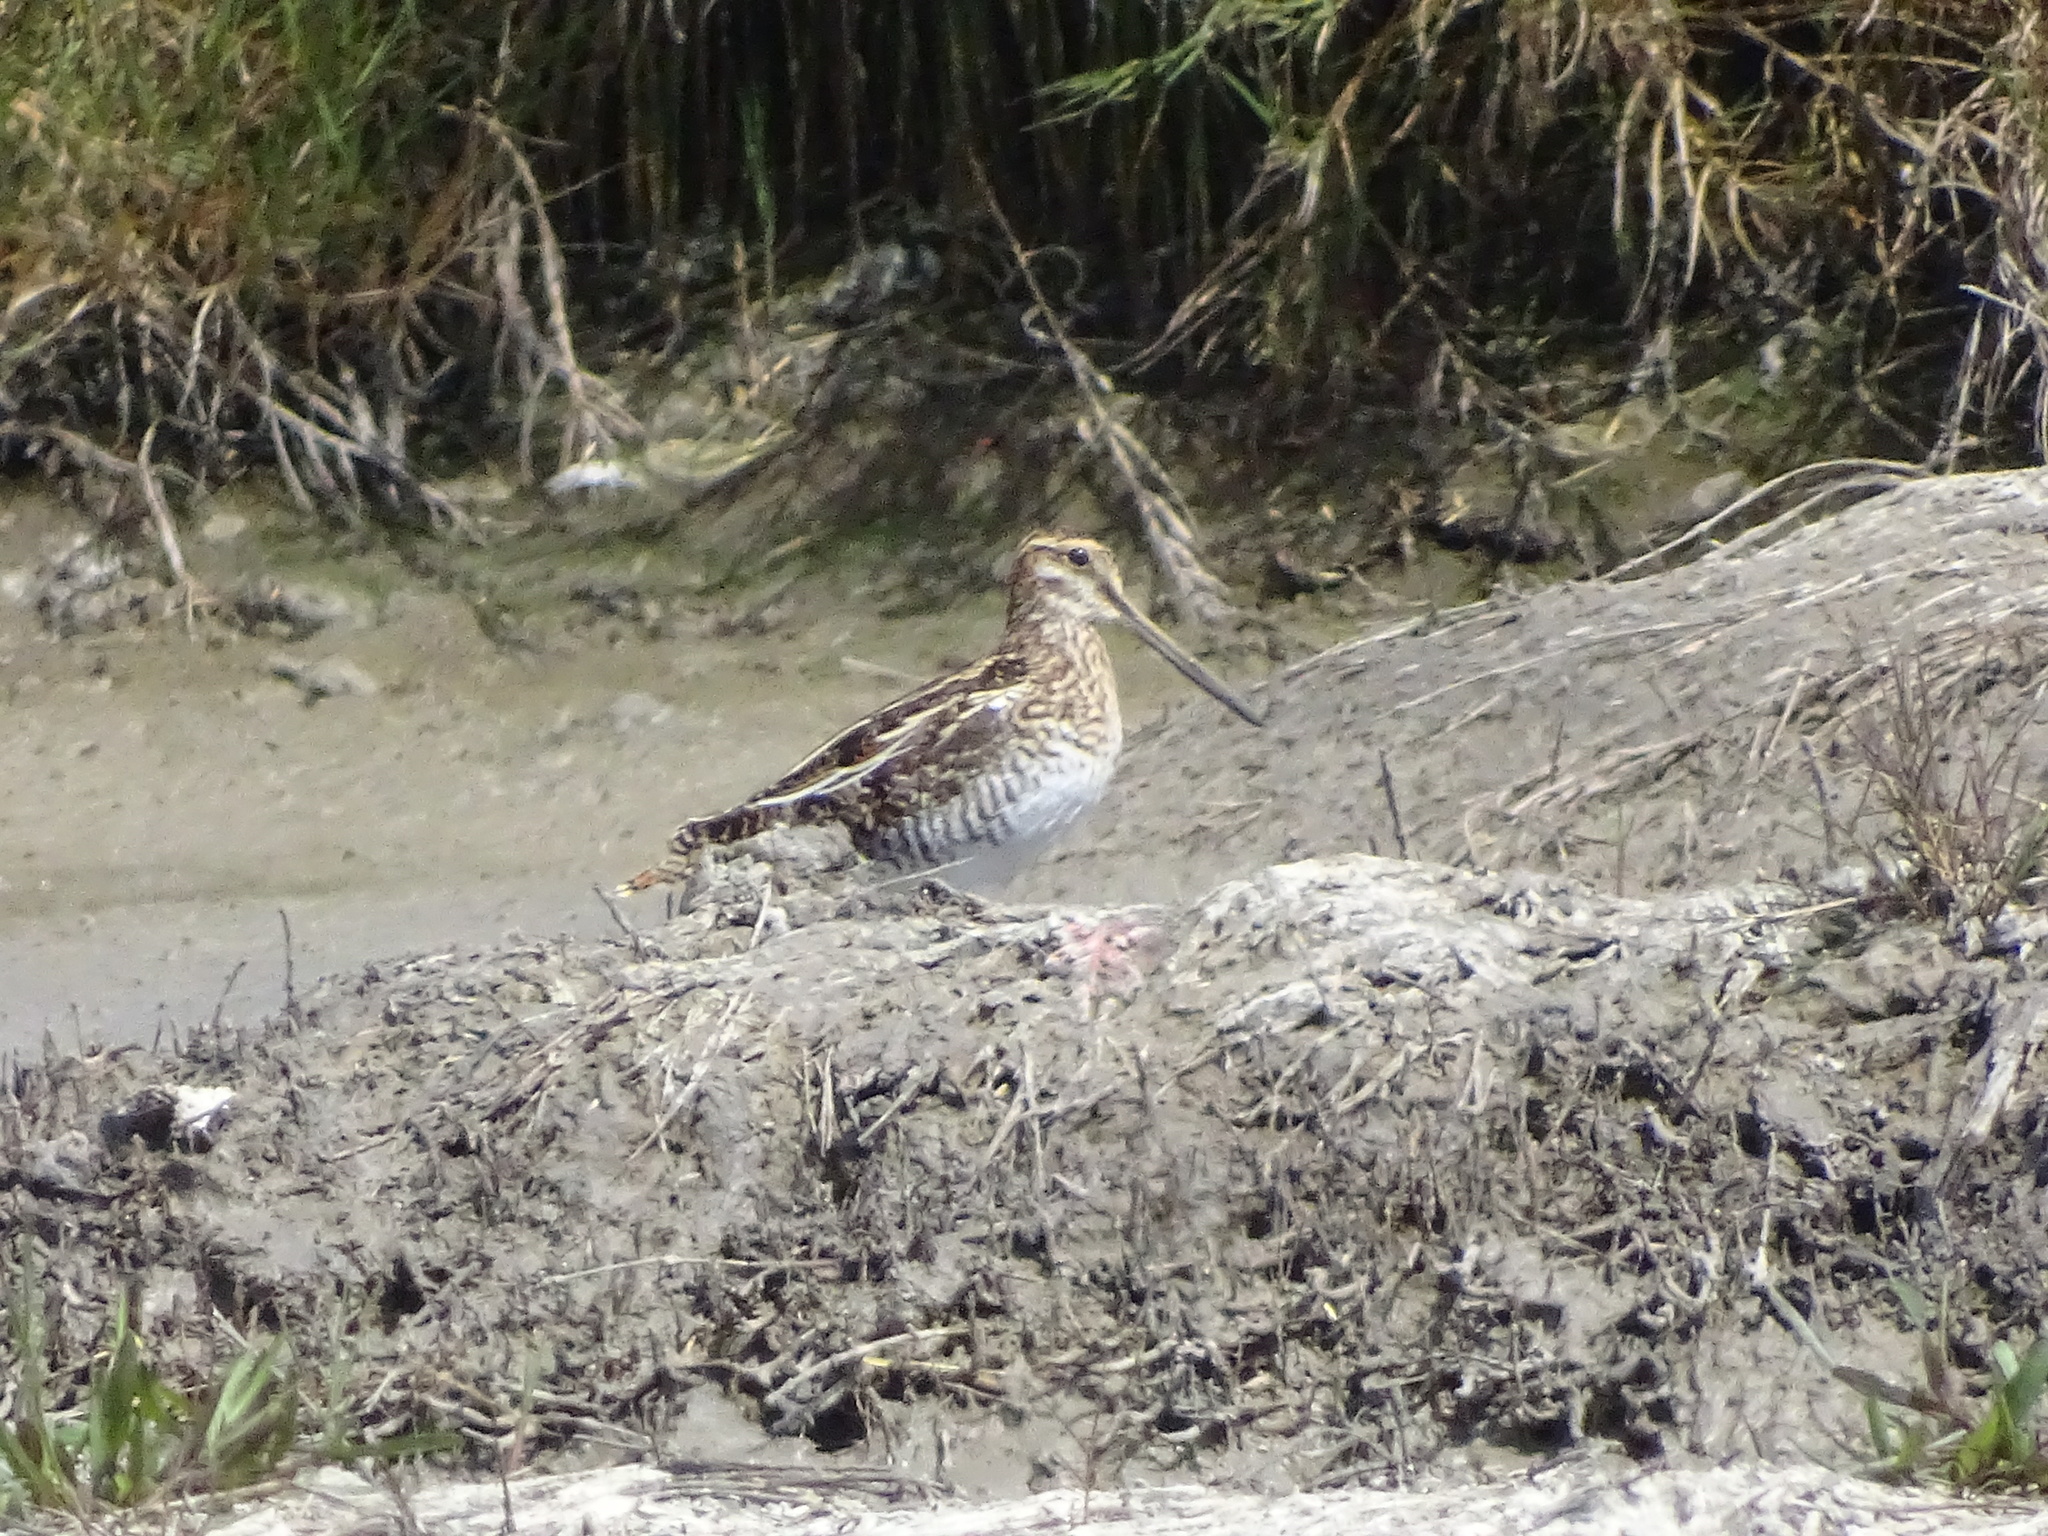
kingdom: Animalia
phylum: Chordata
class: Aves
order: Charadriiformes
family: Scolopacidae
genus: Gallinago
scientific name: Gallinago delicata
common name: Wilson's snipe
